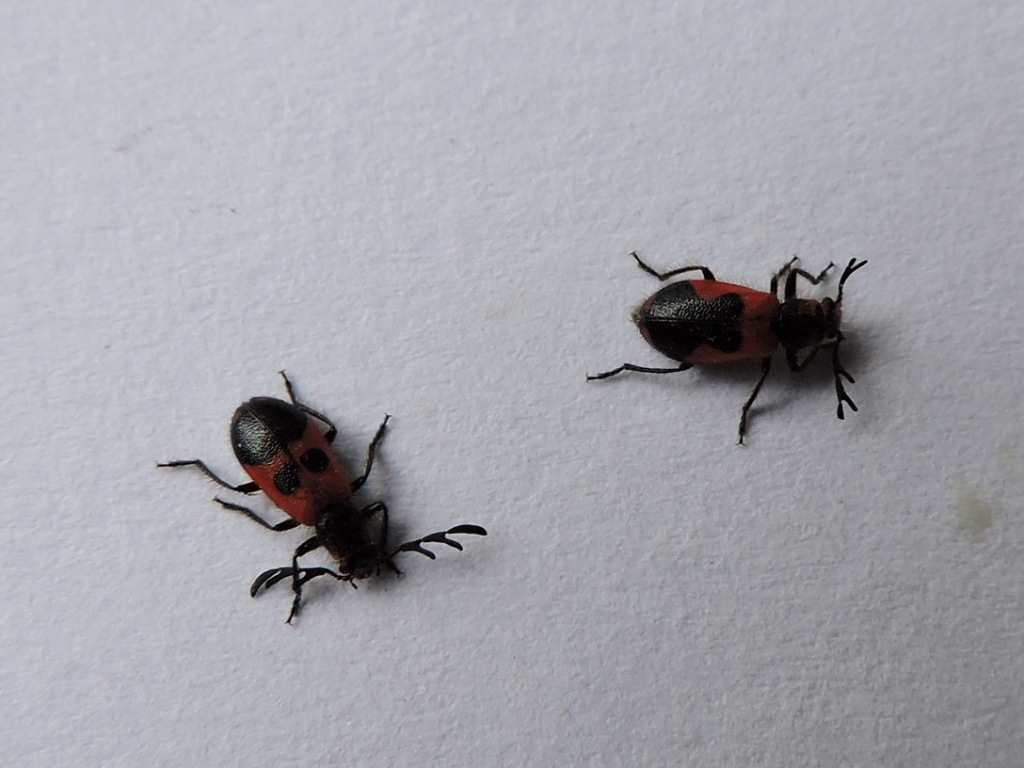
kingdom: Animalia
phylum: Arthropoda
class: Insecta
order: Coleoptera
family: Cleridae
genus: Pelonides
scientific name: Pelonides quadripunctatus
